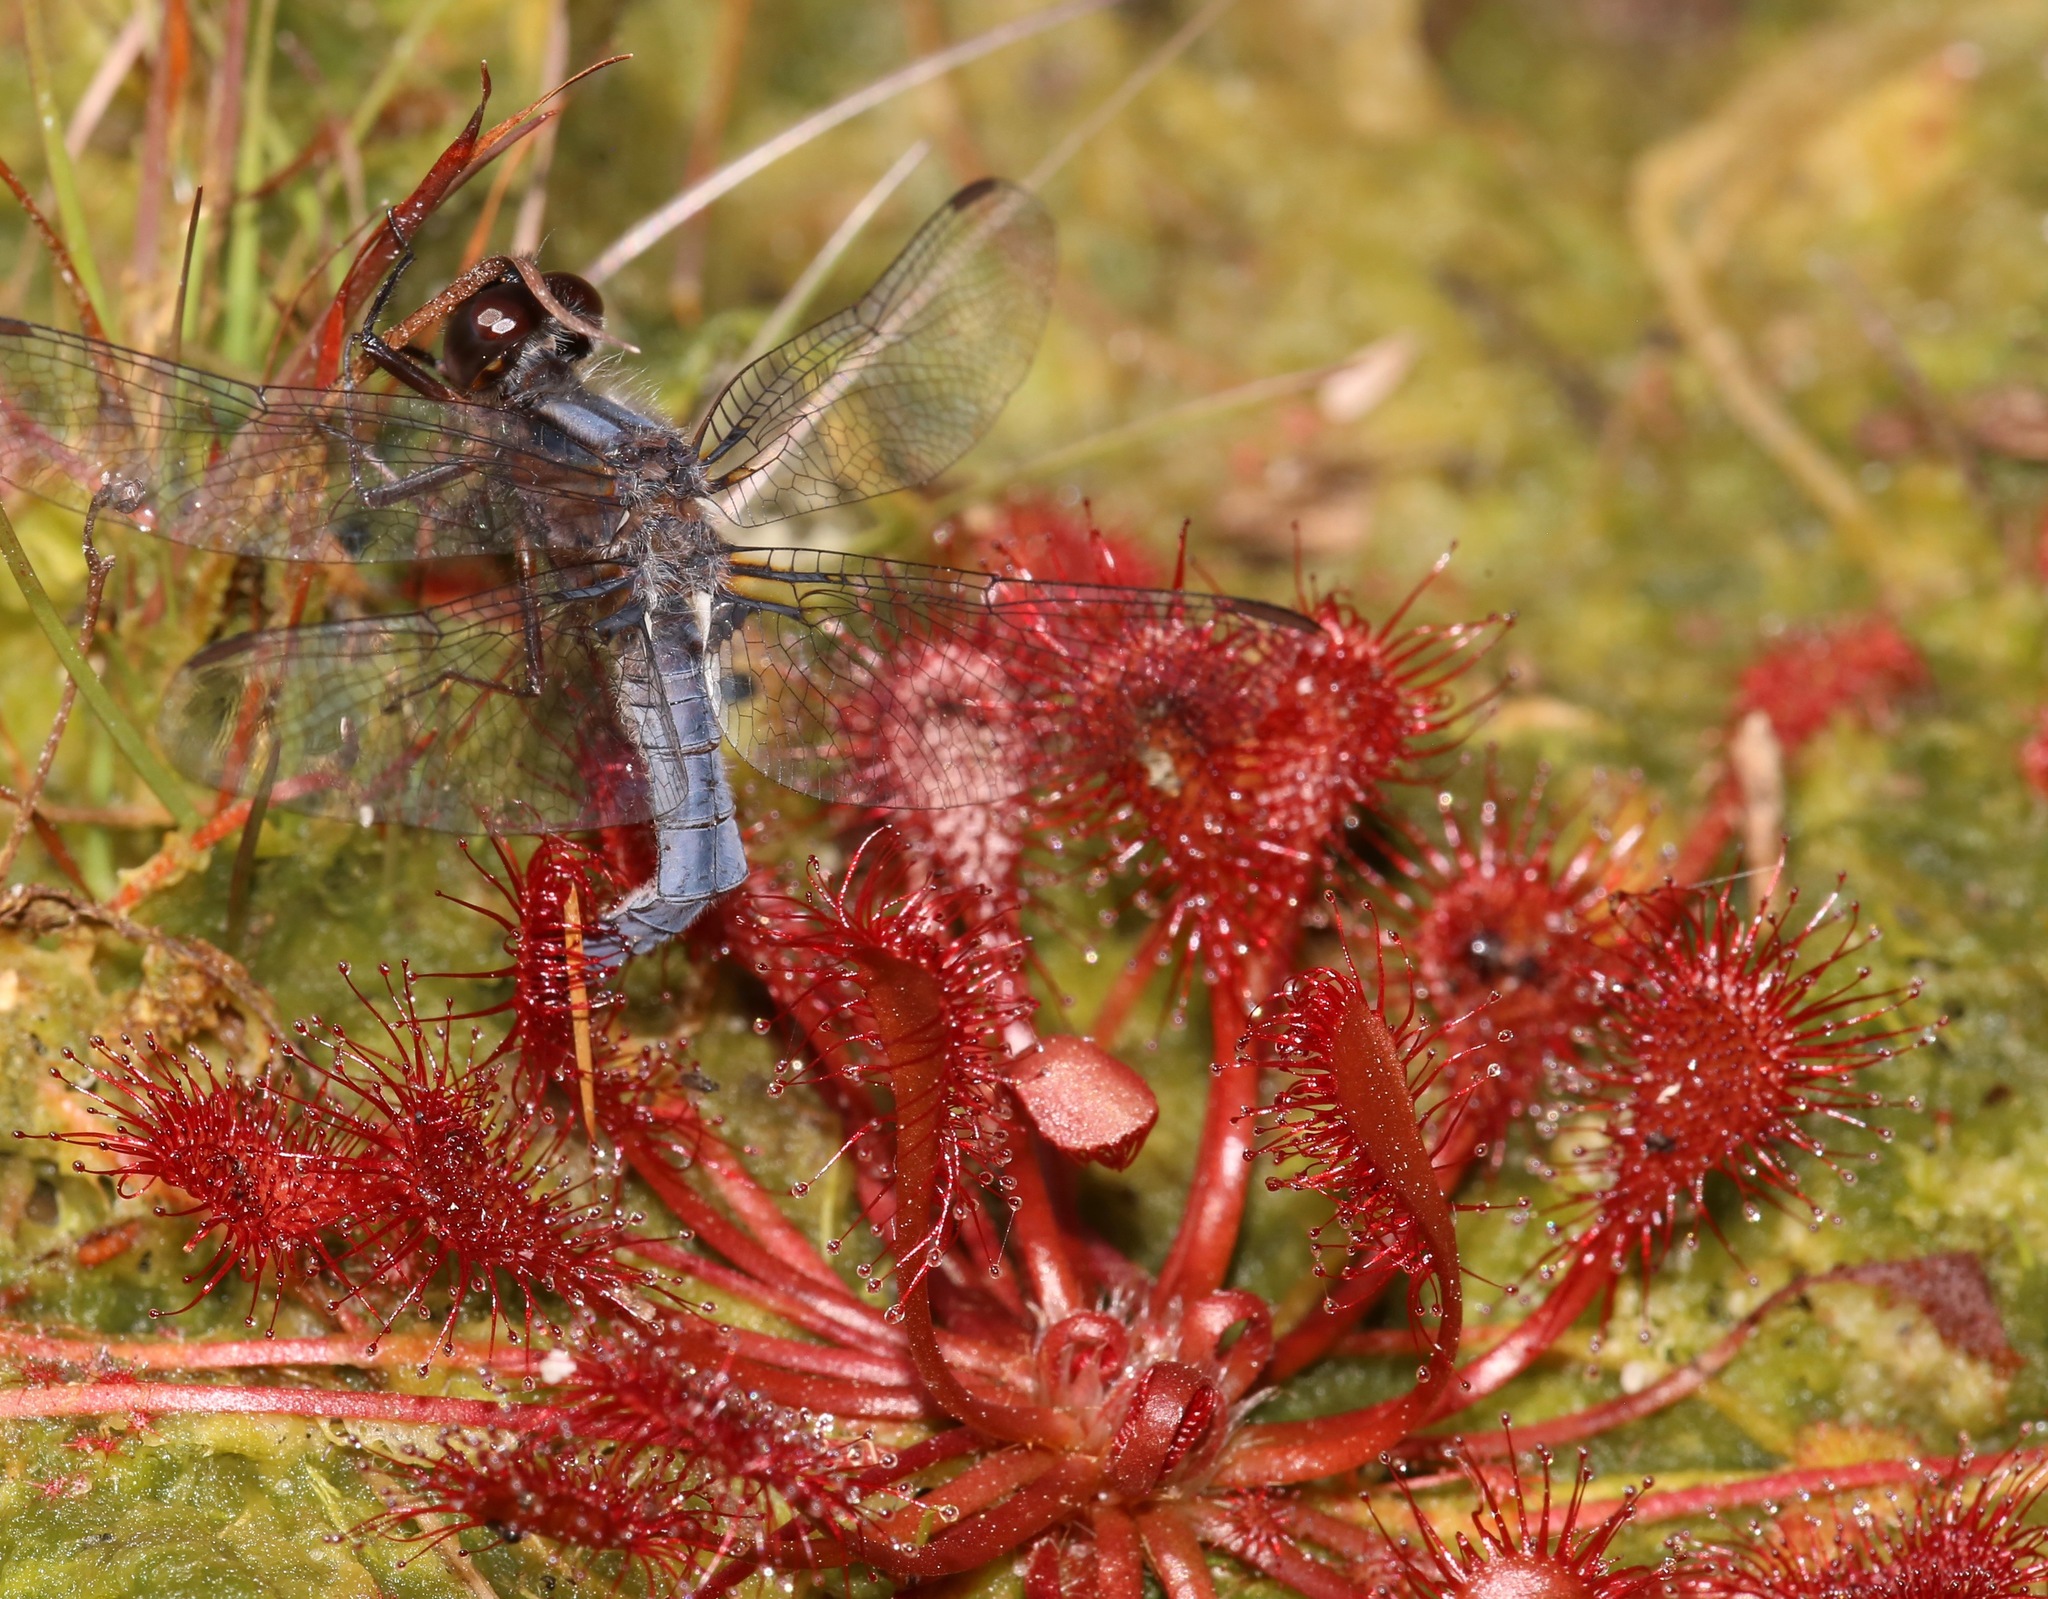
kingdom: Plantae
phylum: Tracheophyta
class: Magnoliopsida
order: Caryophyllales
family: Droseraceae
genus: Drosera
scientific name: Drosera capillaris
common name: Pink sundew
